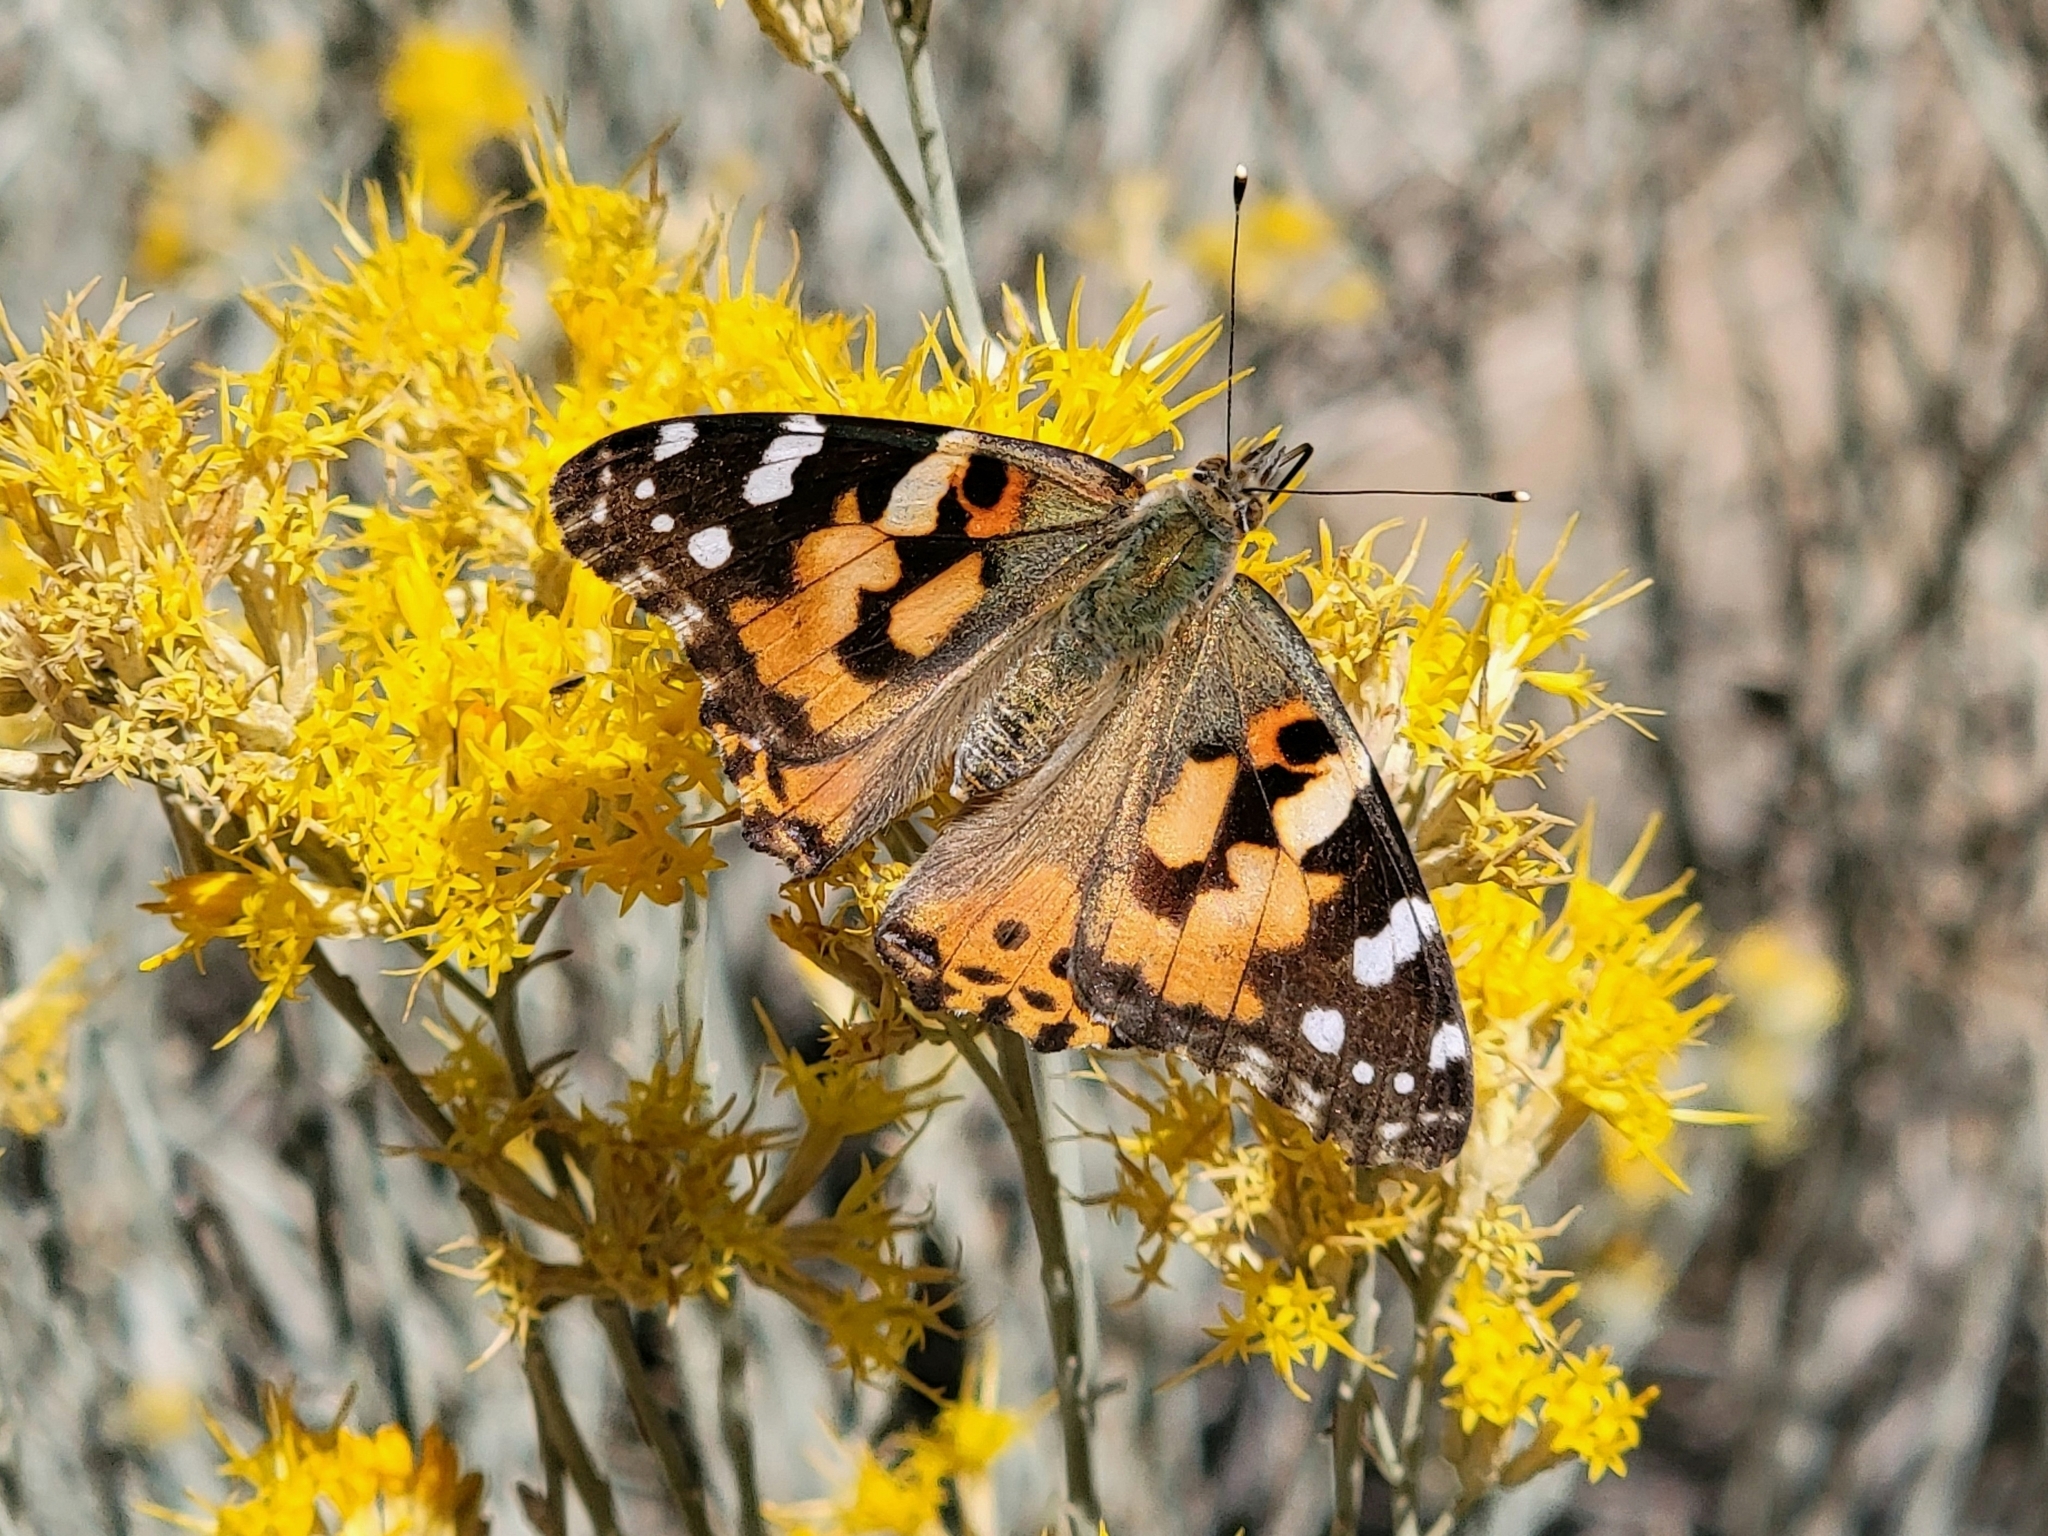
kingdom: Animalia
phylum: Arthropoda
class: Insecta
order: Lepidoptera
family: Nymphalidae
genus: Vanessa
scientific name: Vanessa cardui
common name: Painted lady
